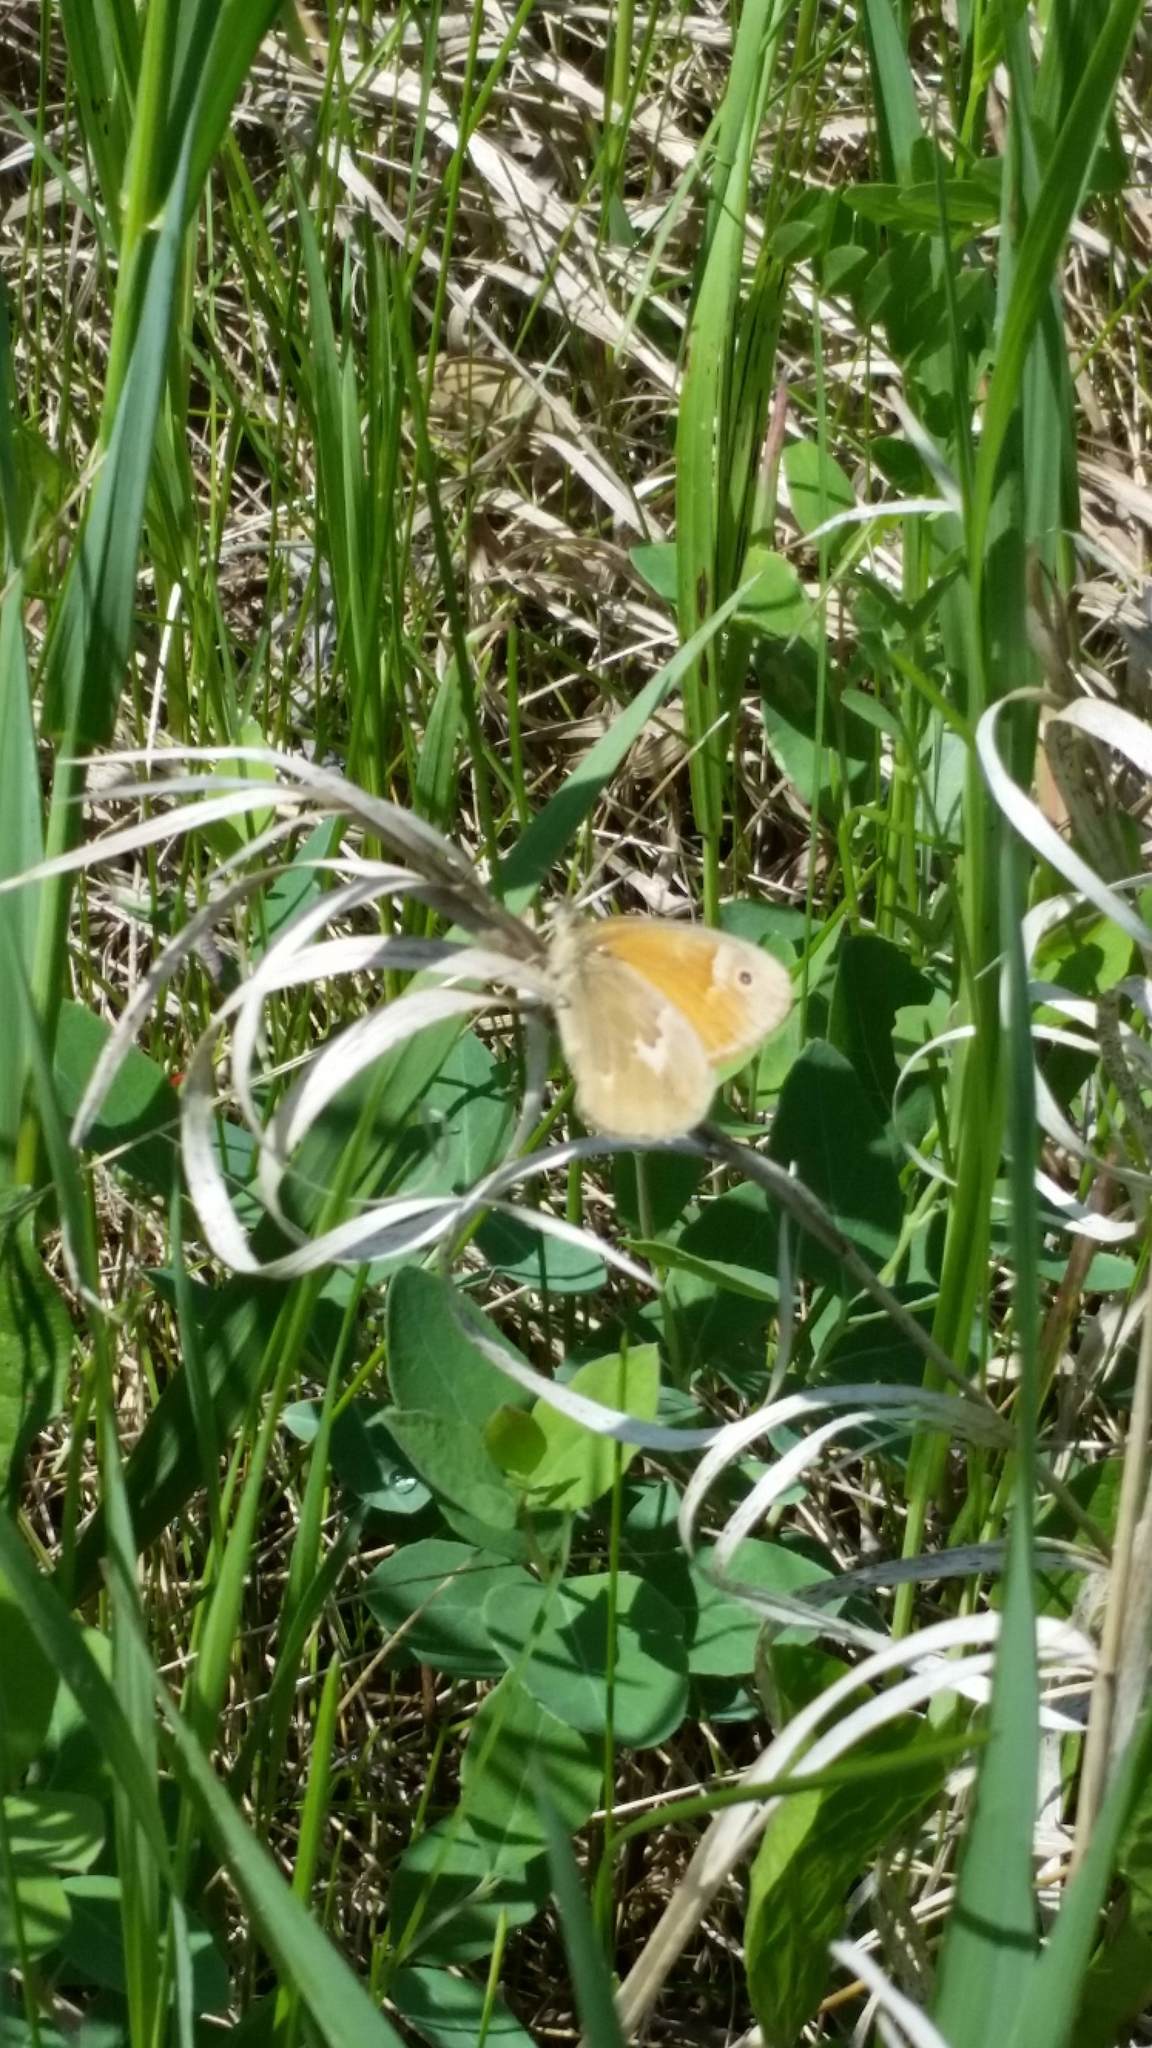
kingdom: Animalia
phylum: Arthropoda
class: Insecta
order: Lepidoptera
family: Nymphalidae
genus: Coenonympha
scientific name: Coenonympha california
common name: Common ringlet
